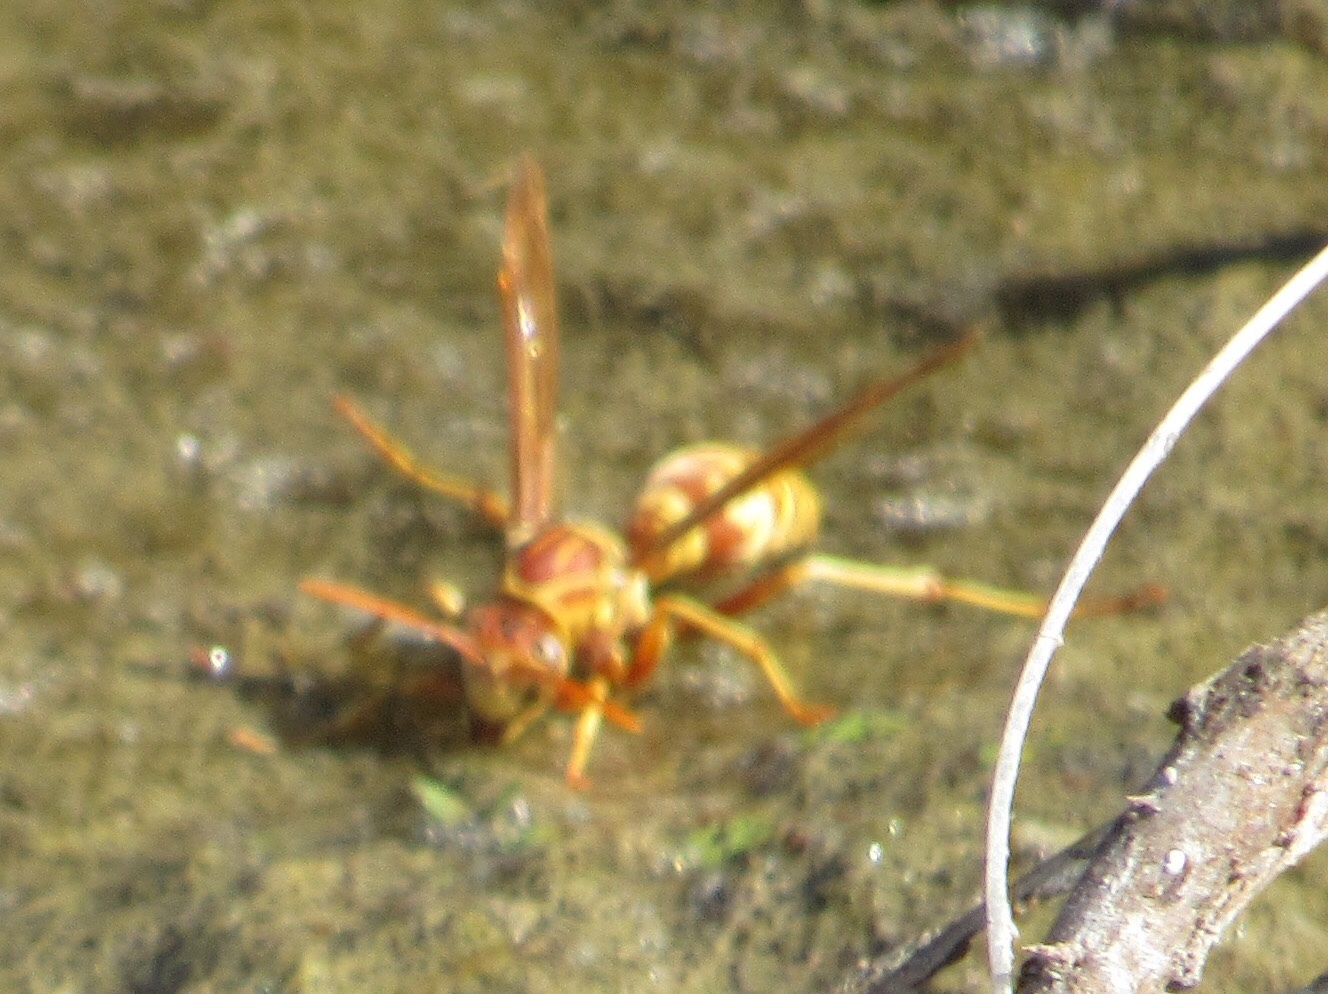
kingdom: Animalia
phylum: Arthropoda
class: Insecta
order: Hymenoptera
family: Eumenidae
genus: Polistes
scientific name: Polistes apachus
